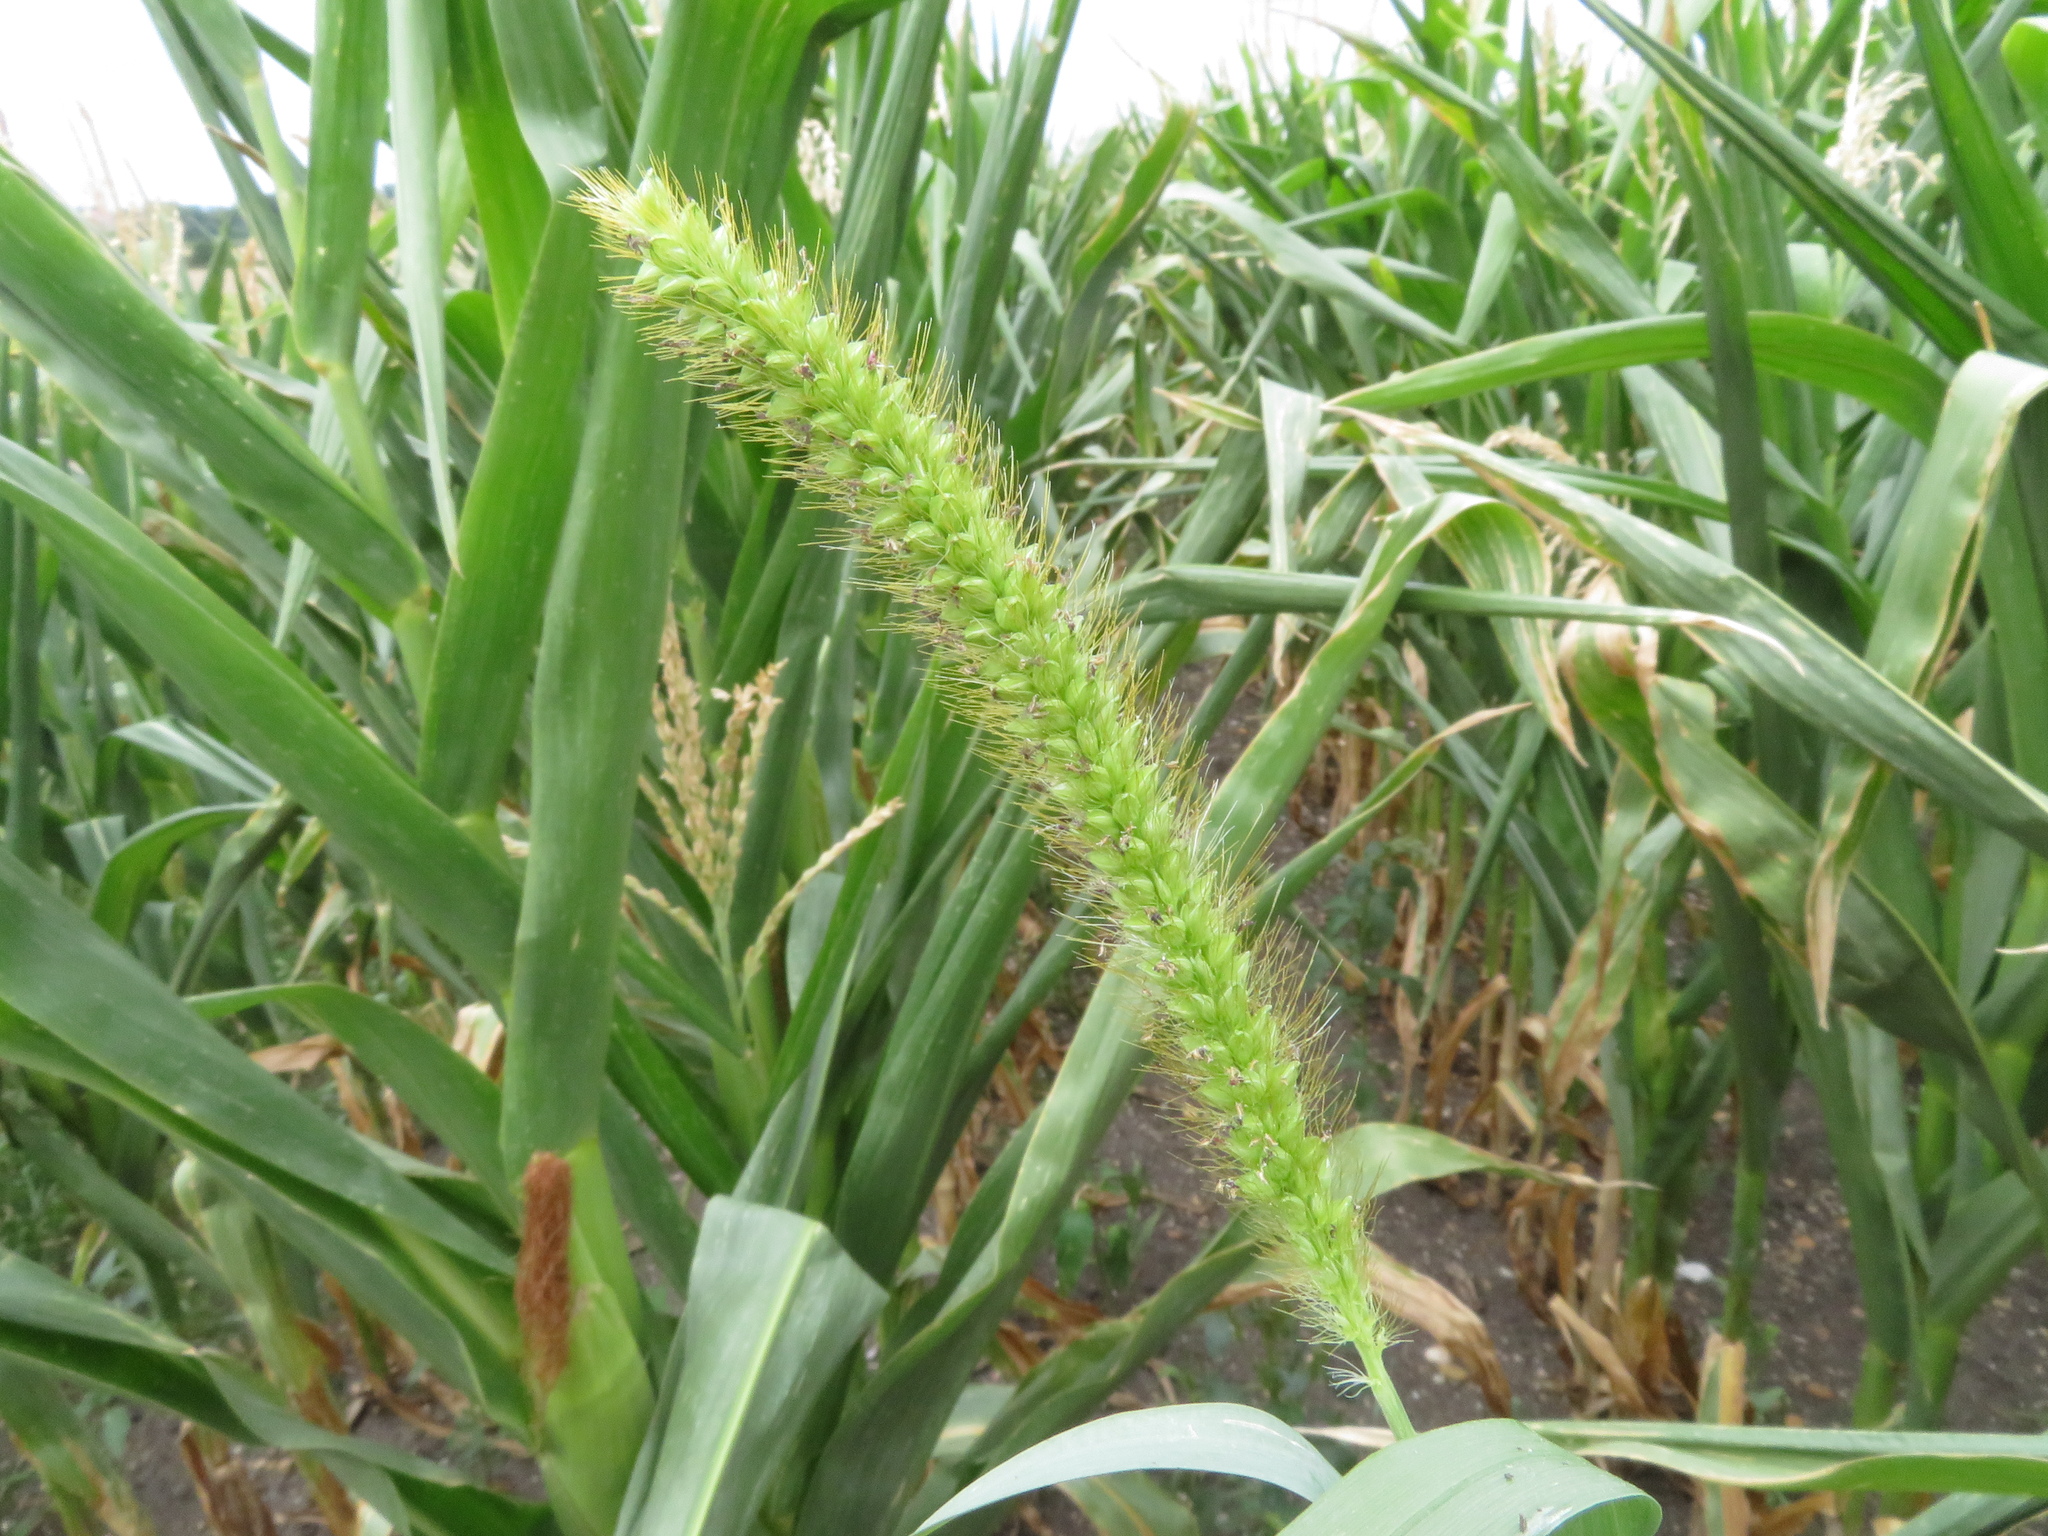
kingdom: Plantae
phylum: Tracheophyta
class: Liliopsida
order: Poales
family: Poaceae
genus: Setaria
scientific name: Setaria pumila
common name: Yellow bristle-grass
